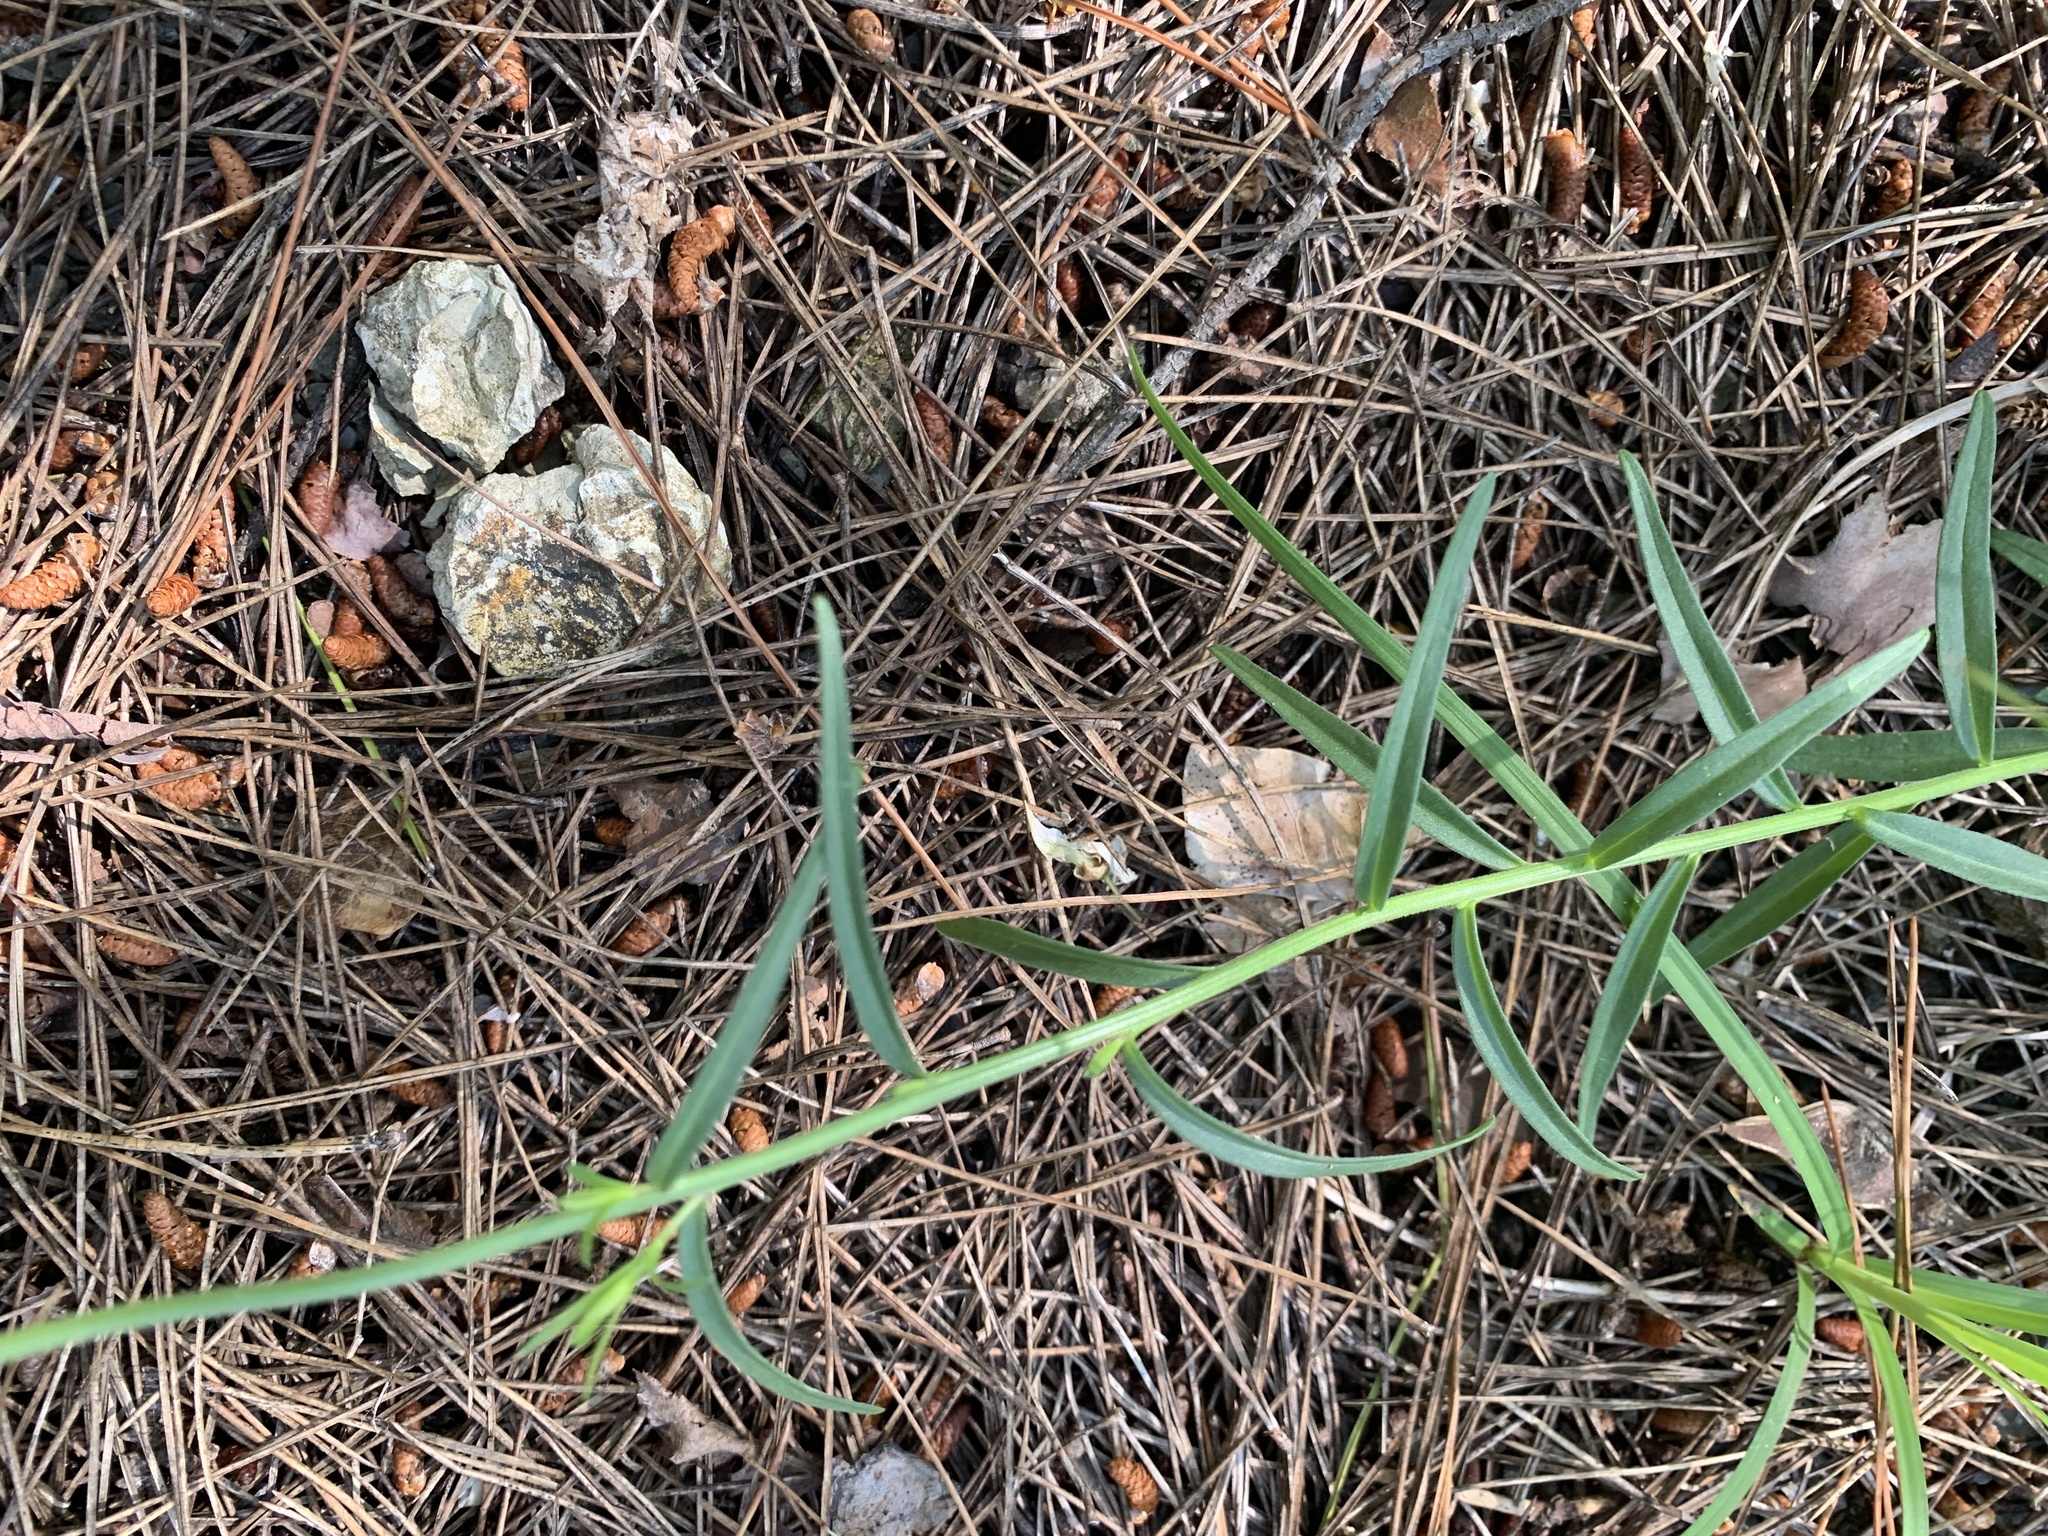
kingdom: Plantae
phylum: Tracheophyta
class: Magnoliopsida
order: Fabales
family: Polygalaceae
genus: Polygala
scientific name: Polygala major
